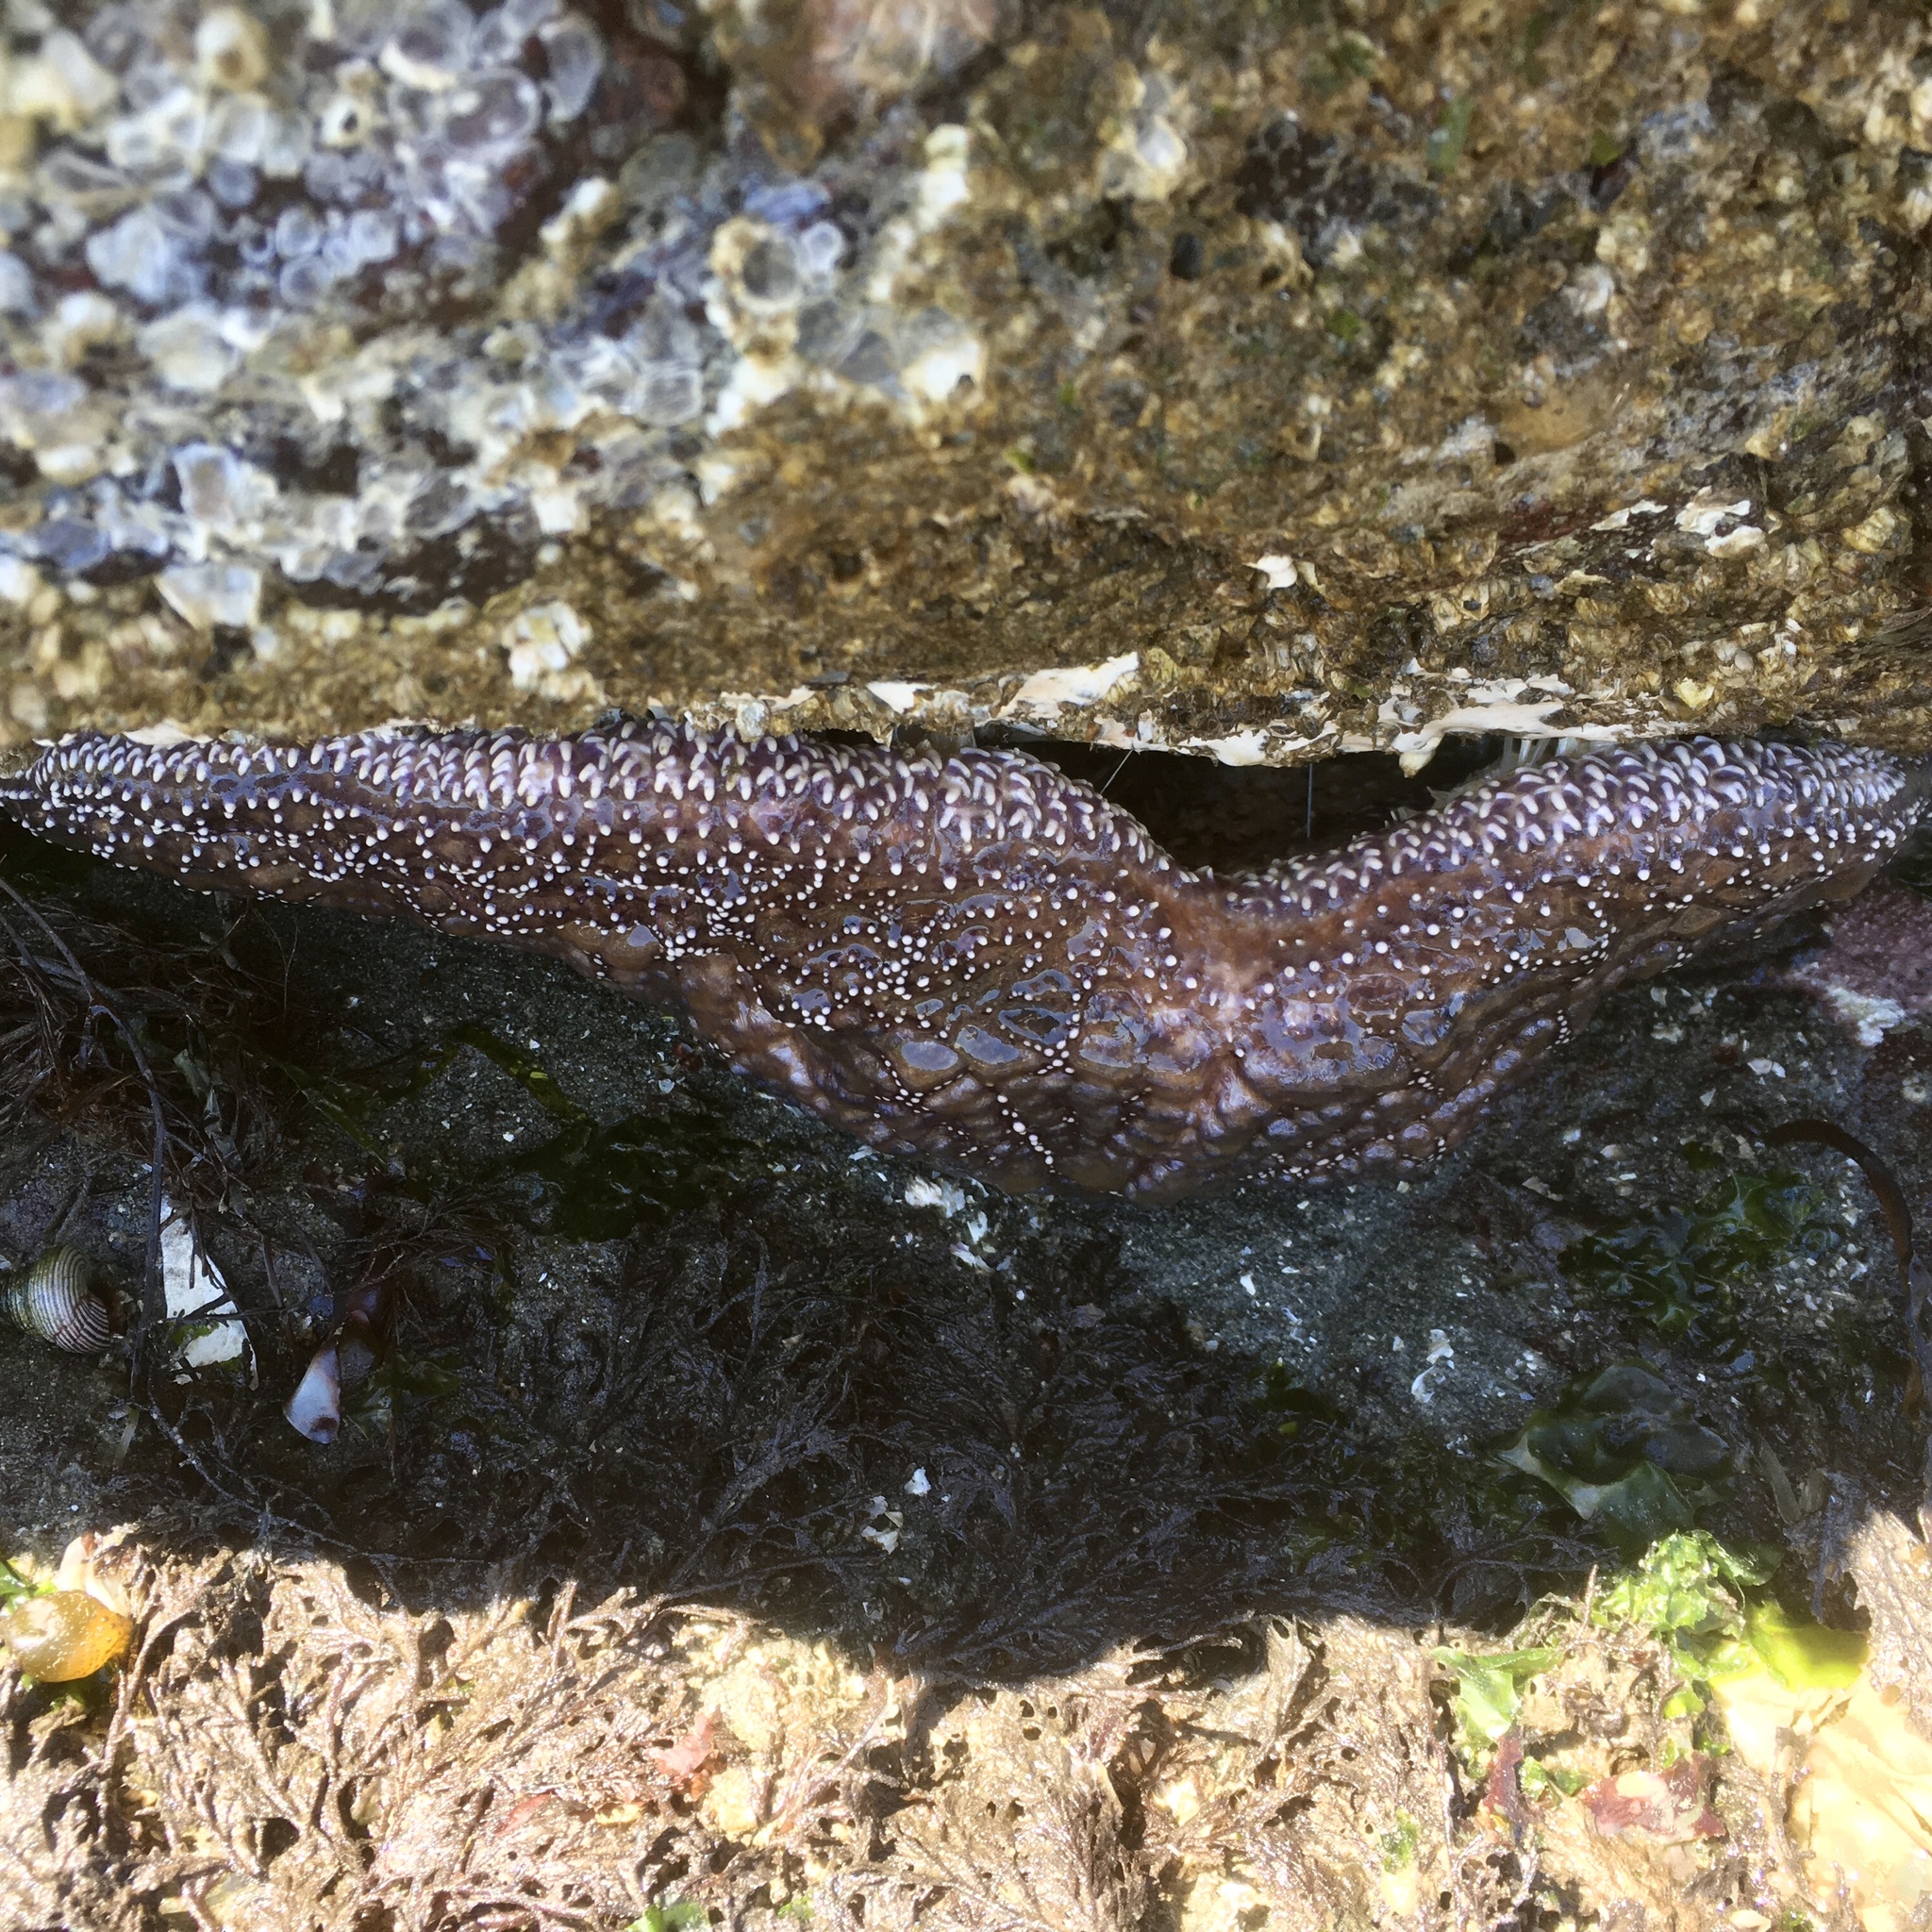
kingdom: Animalia
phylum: Echinodermata
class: Asteroidea
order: Forcipulatida
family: Asteriidae
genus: Pisaster
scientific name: Pisaster ochraceus
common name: Ochre stars
